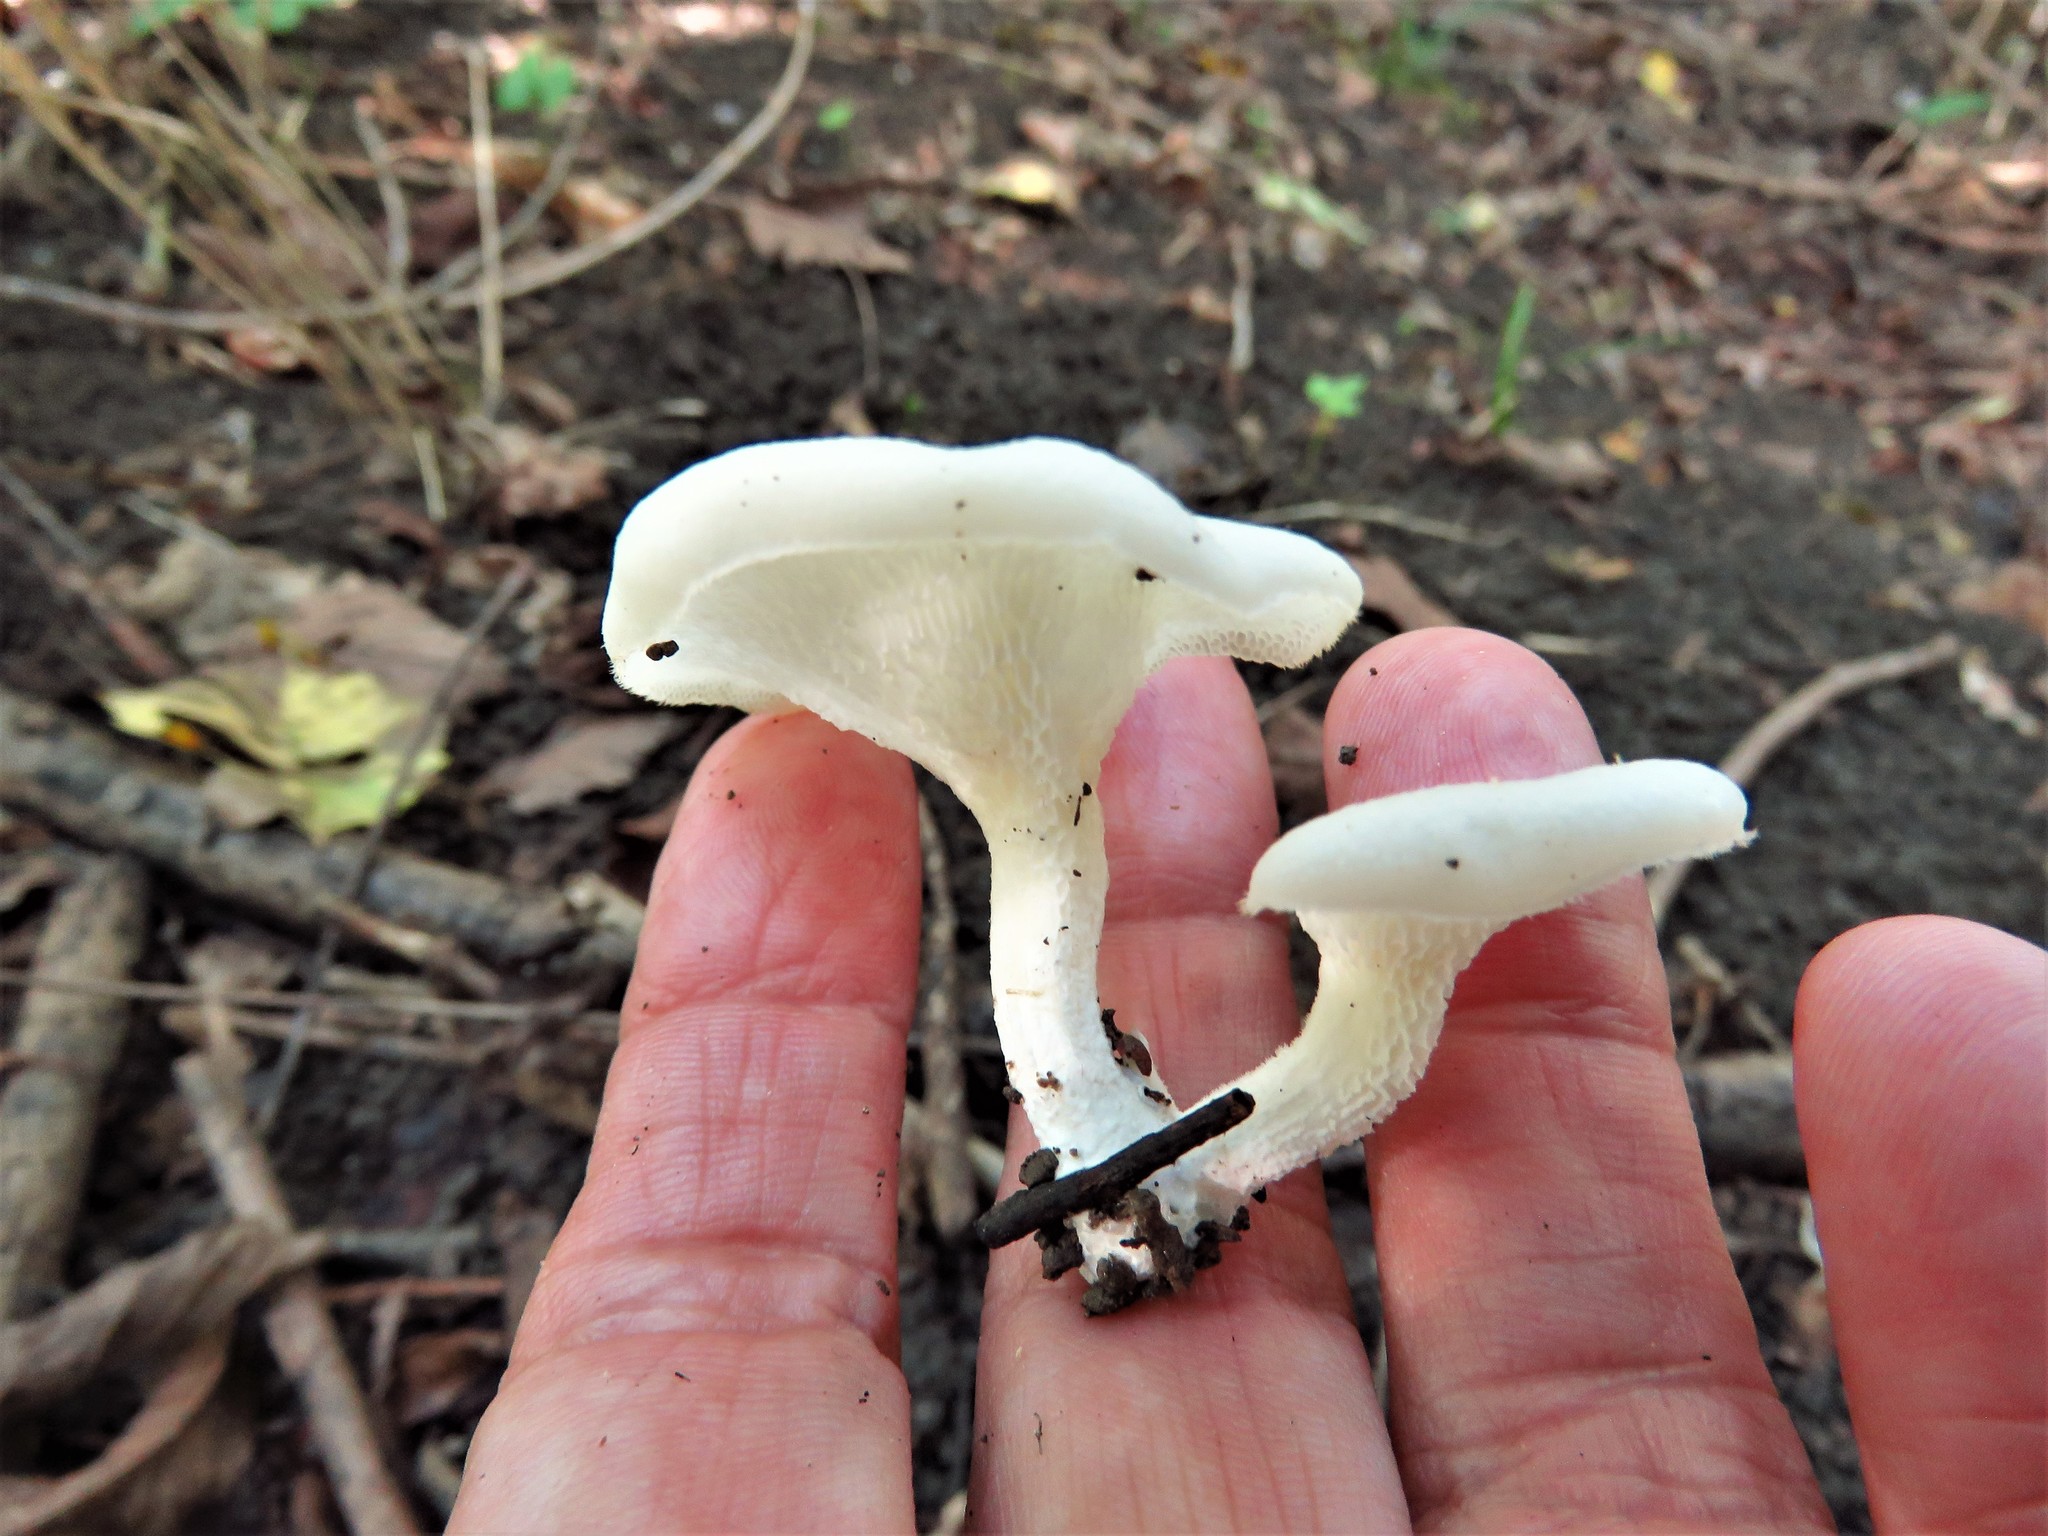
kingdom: Fungi
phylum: Basidiomycota
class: Agaricomycetes
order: Polyporales
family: Polyporaceae
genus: Favolus
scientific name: Favolus tenuiculus
